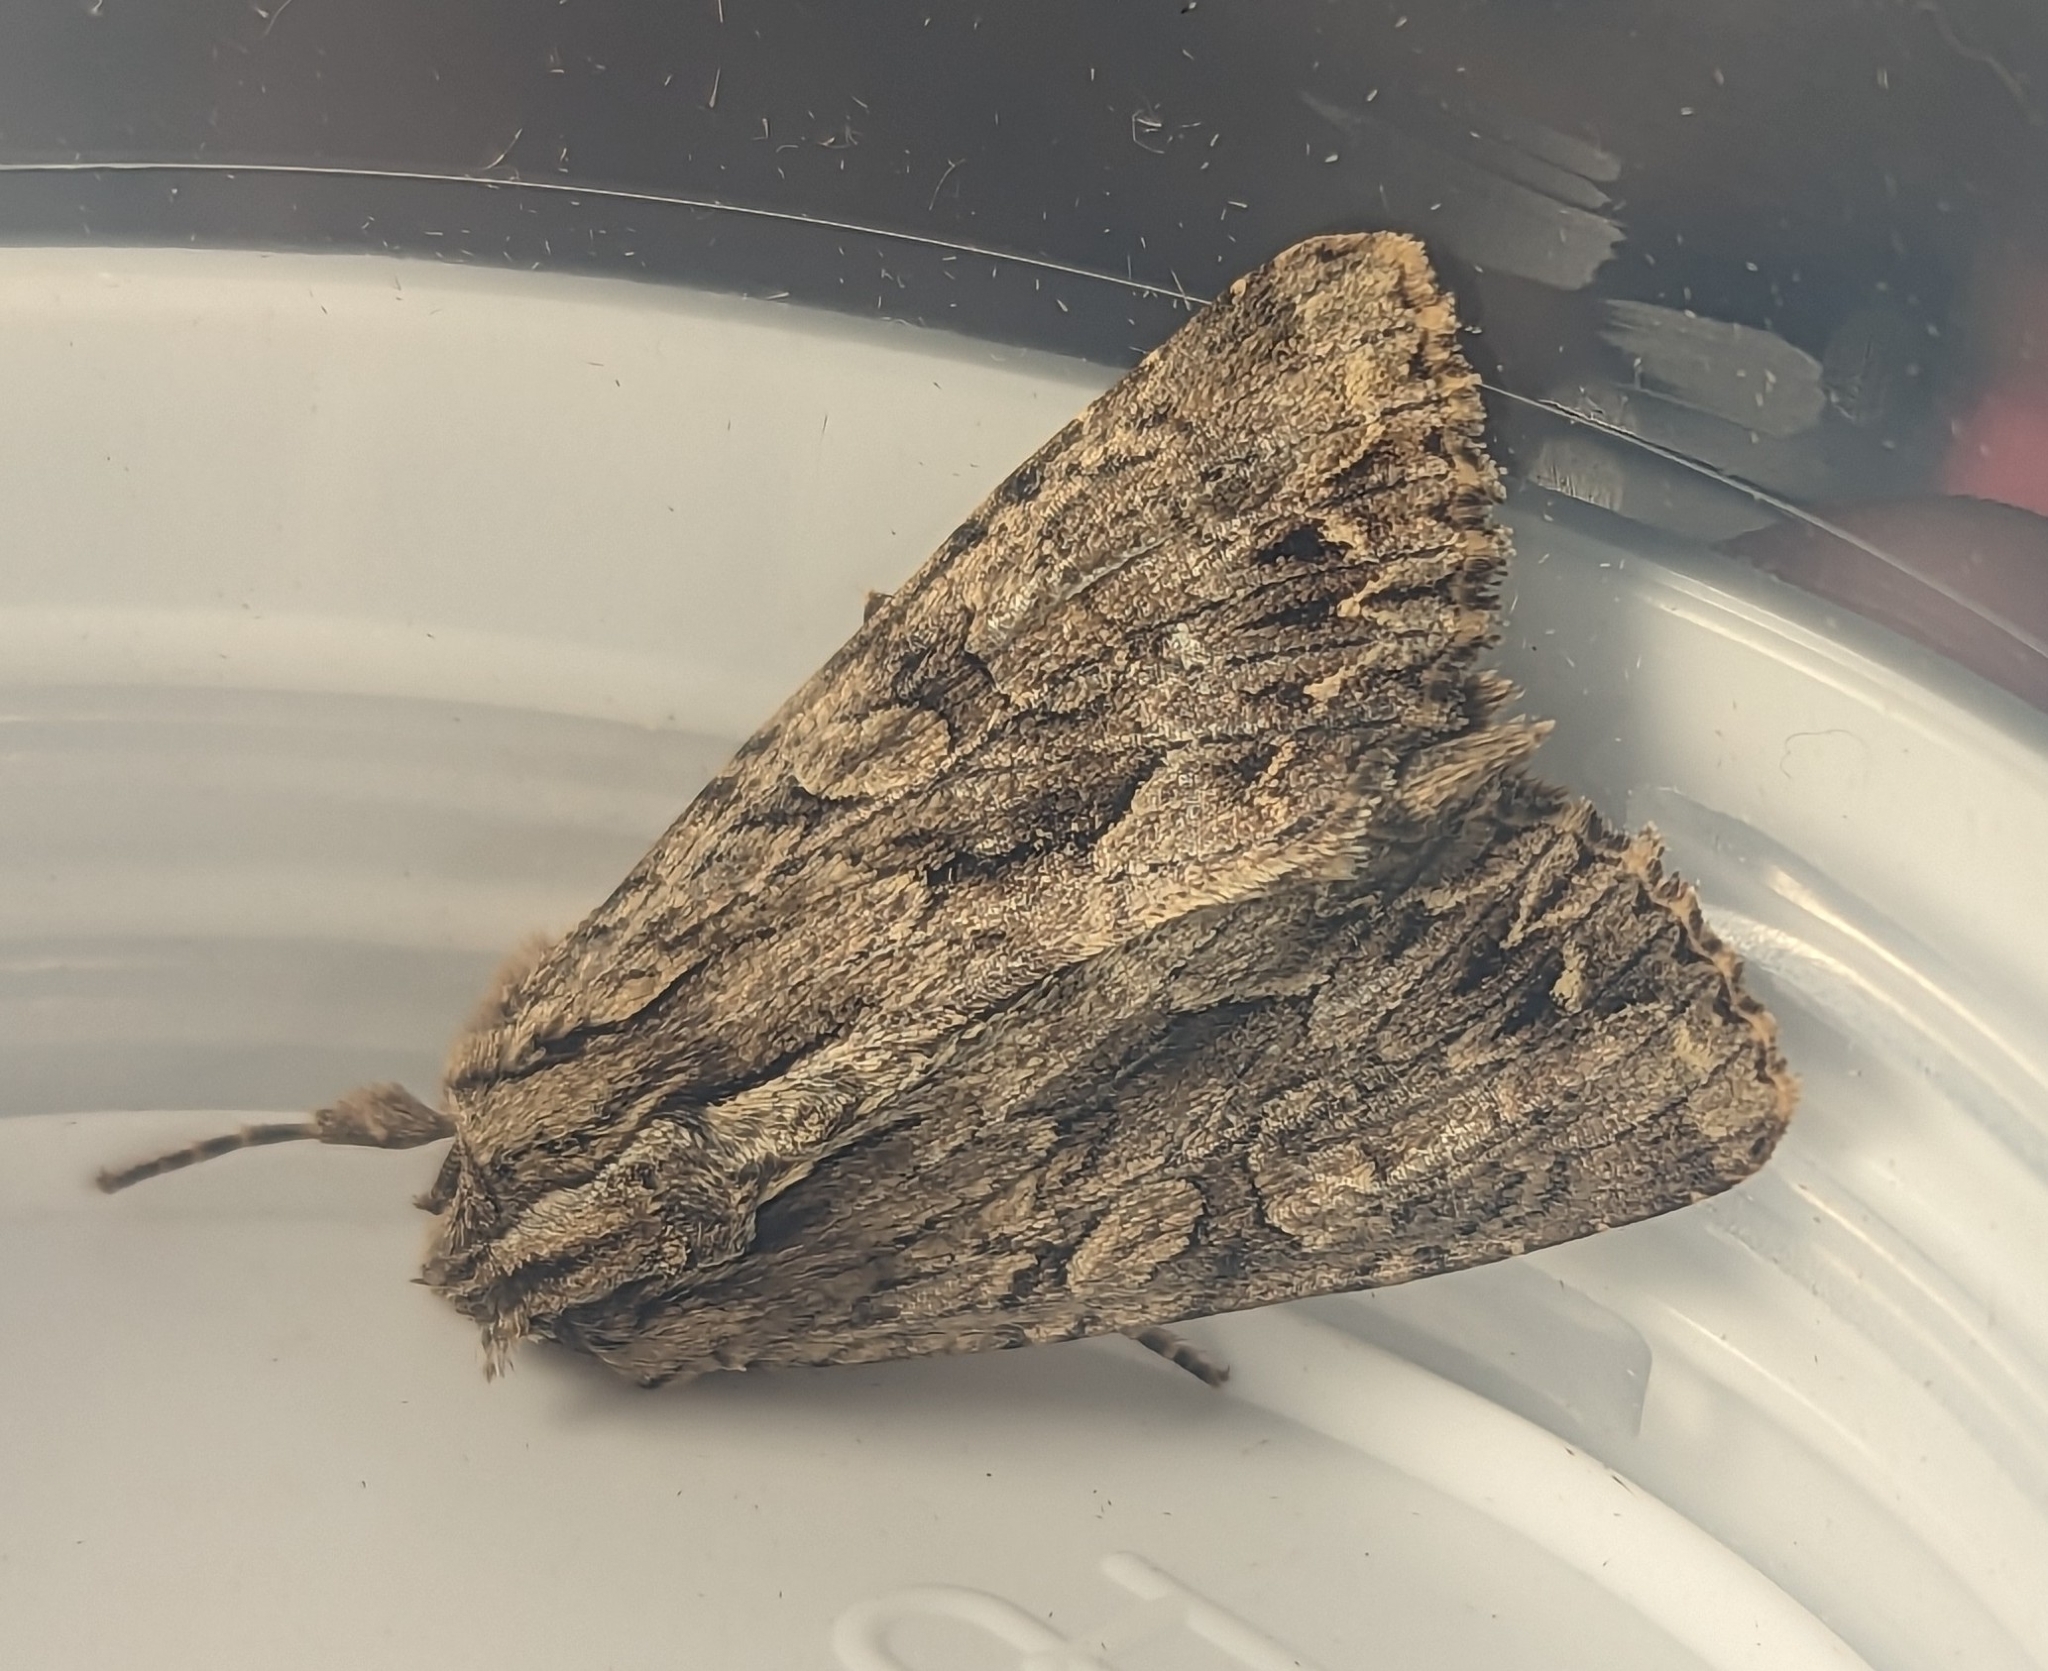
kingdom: Animalia
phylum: Arthropoda
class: Insecta
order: Lepidoptera
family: Noctuidae
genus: Apamea
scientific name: Apamea monoglypha
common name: Dark arches
